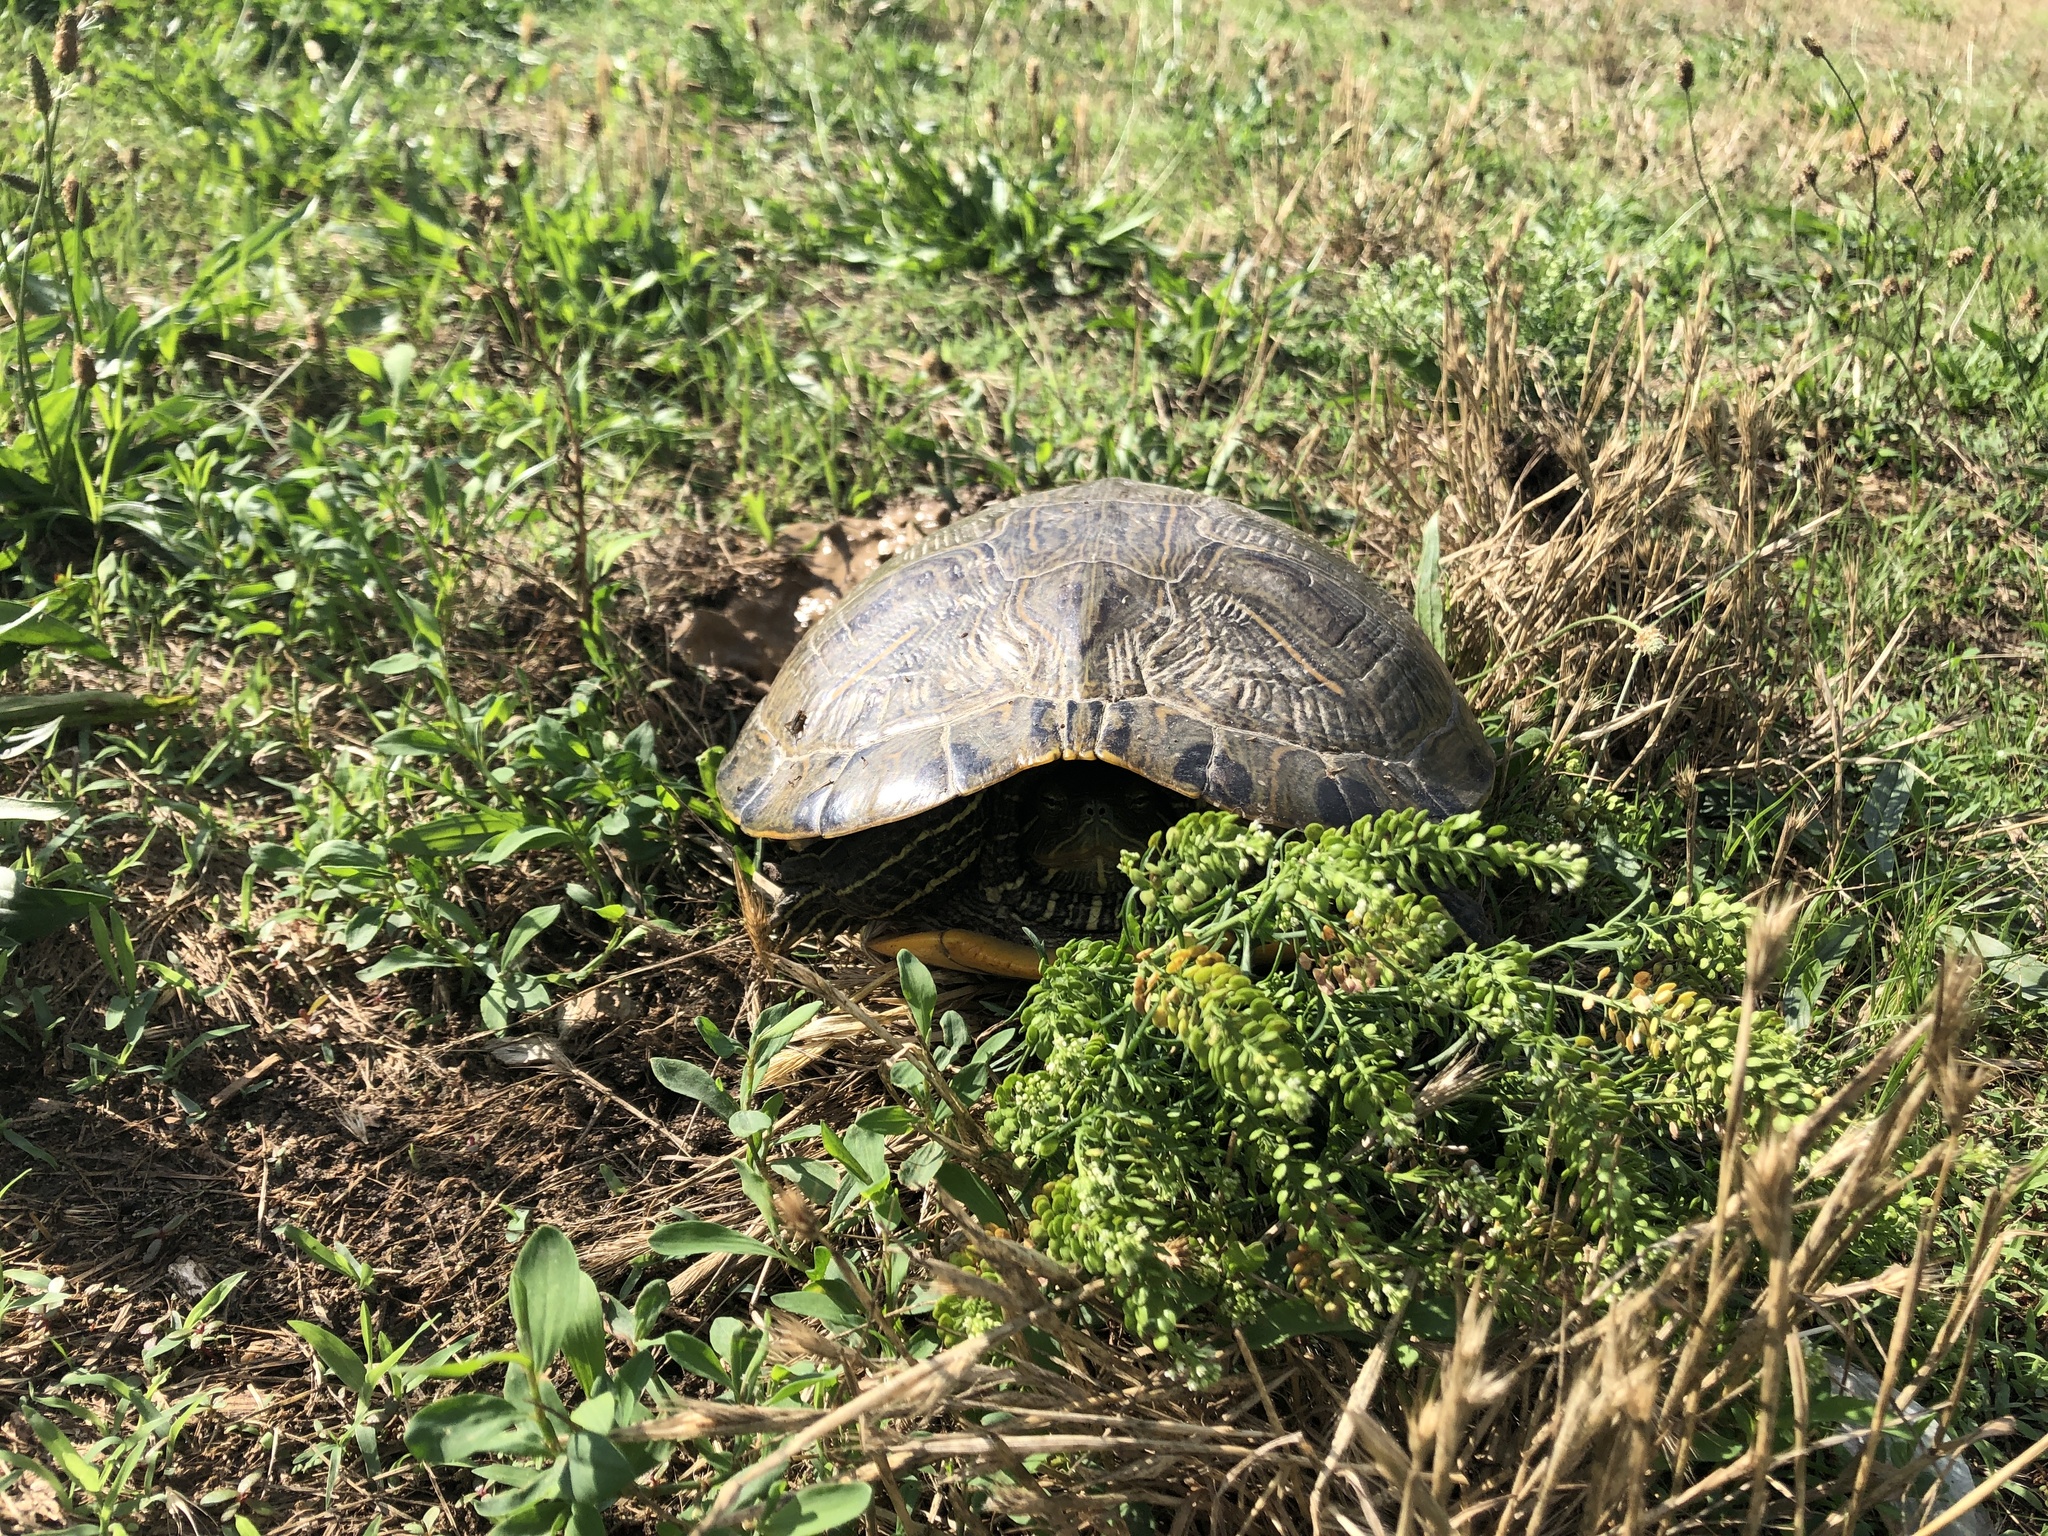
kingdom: Animalia
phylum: Chordata
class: Testudines
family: Emydidae
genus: Trachemys
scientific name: Trachemys scripta
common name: Slider
